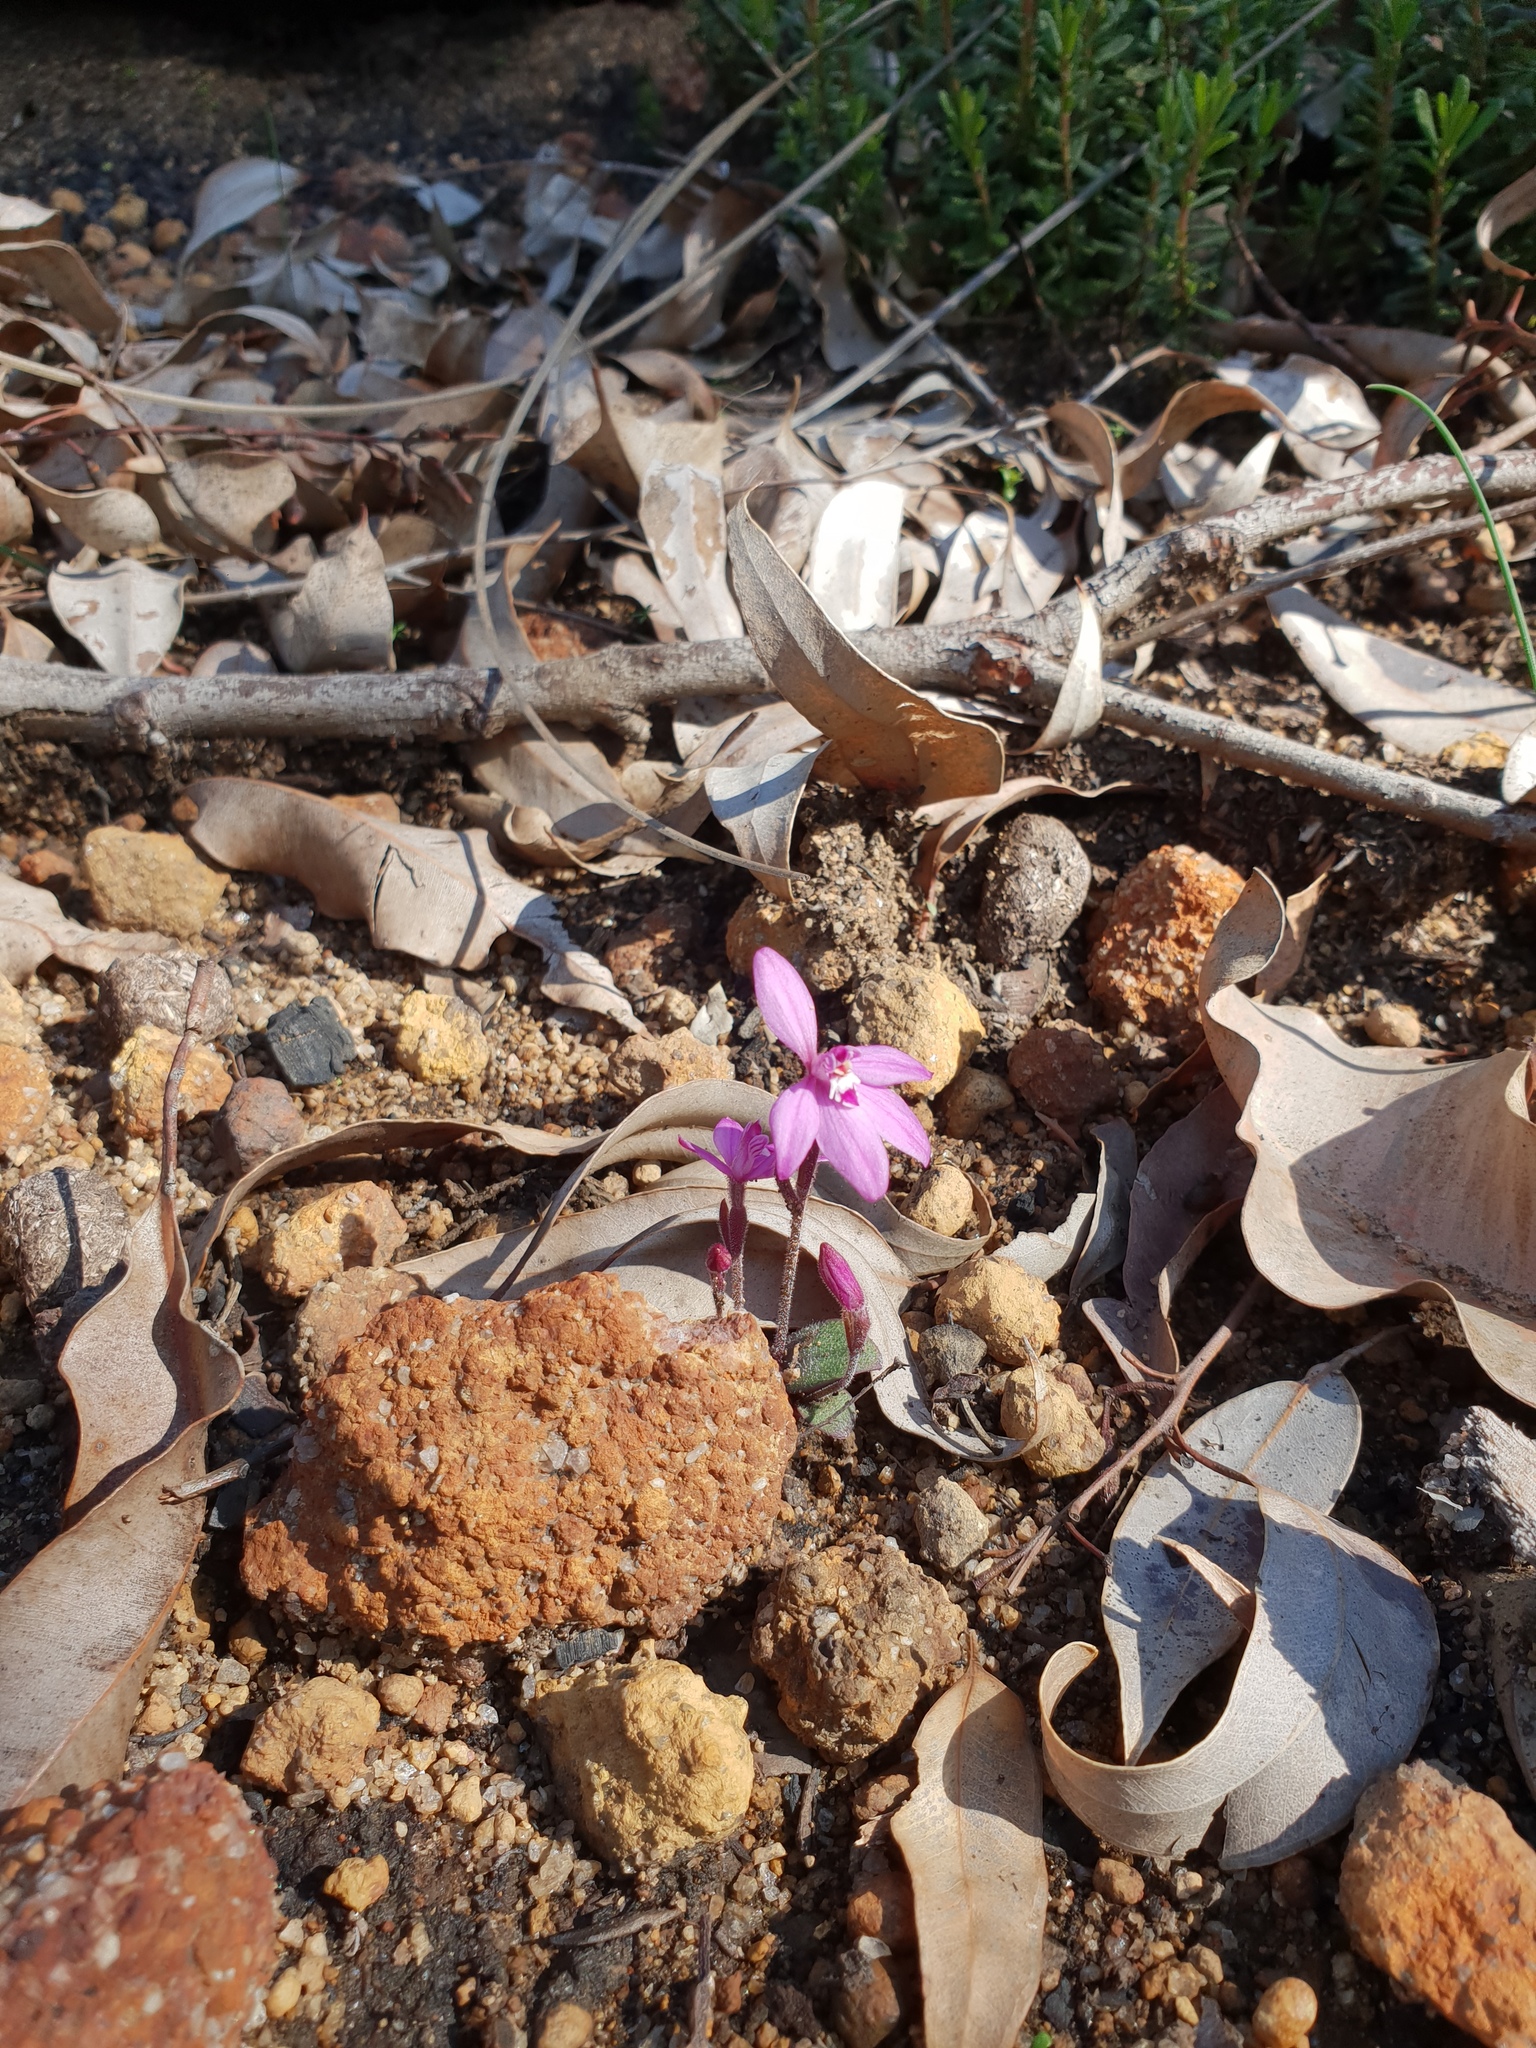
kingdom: Plantae
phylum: Tracheophyta
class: Liliopsida
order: Asparagales
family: Orchidaceae
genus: Caladenia
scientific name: Caladenia reptans
